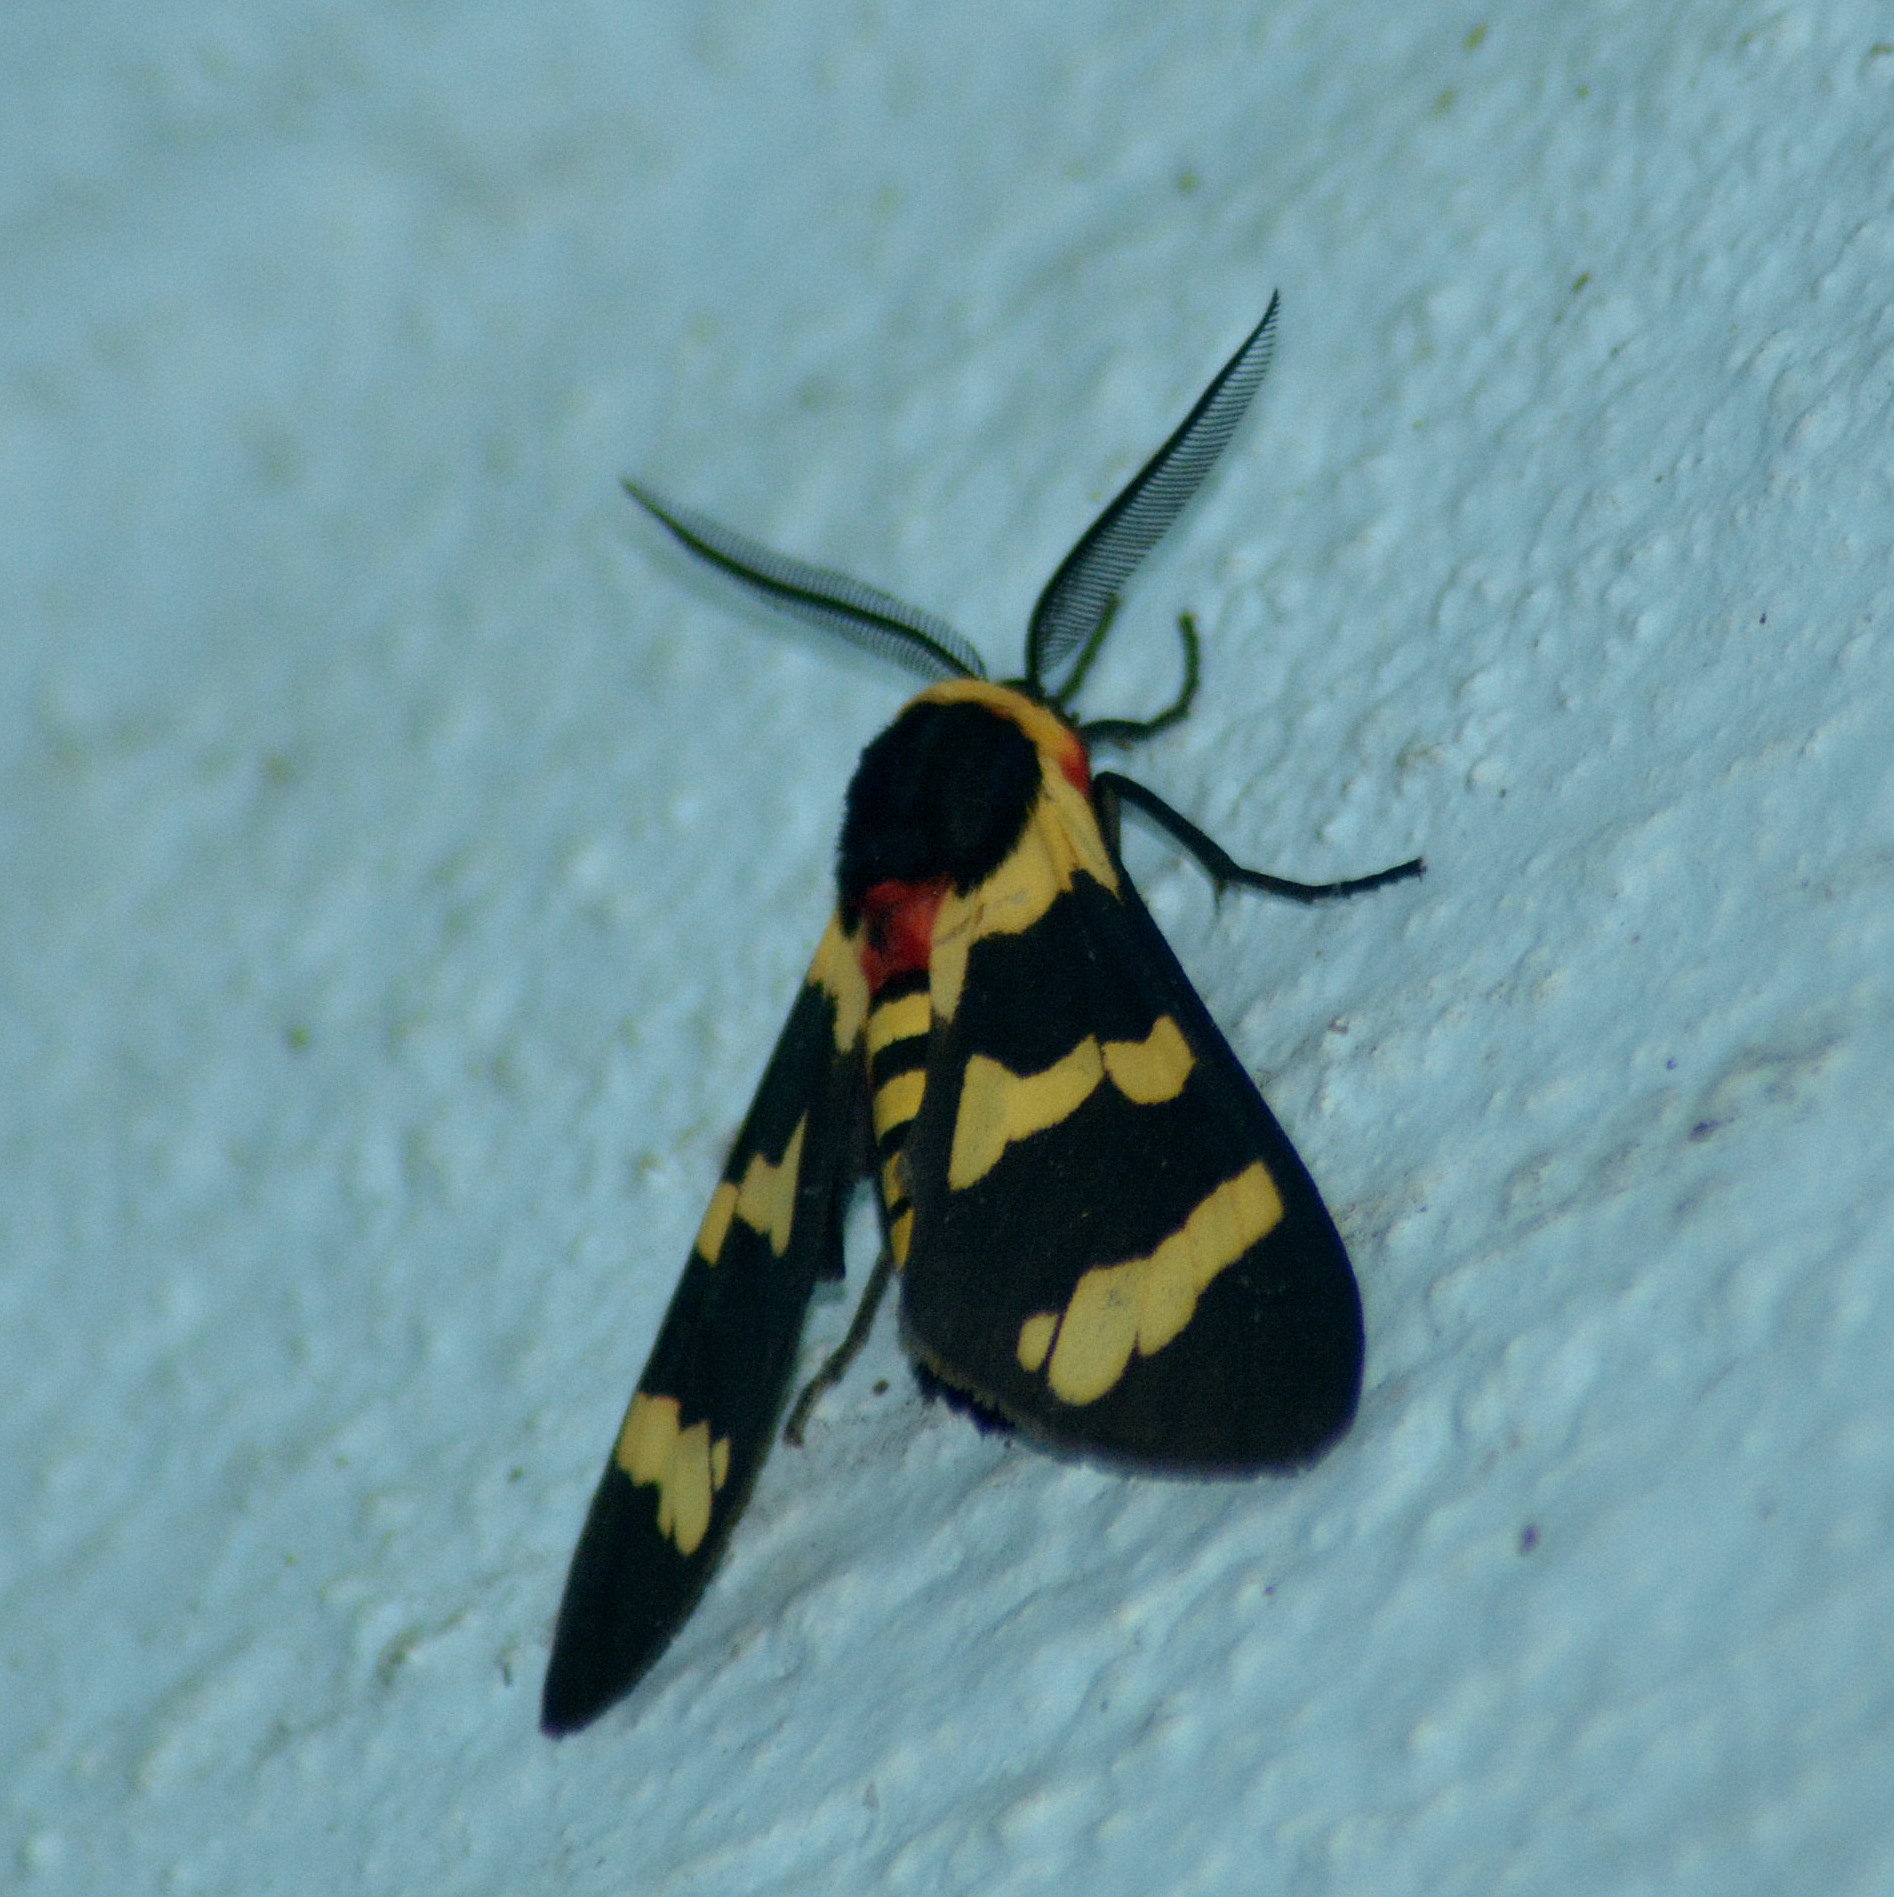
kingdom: Animalia
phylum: Arthropoda
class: Insecta
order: Lepidoptera
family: Erebidae
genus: Eurata
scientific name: Eurata hilaris
